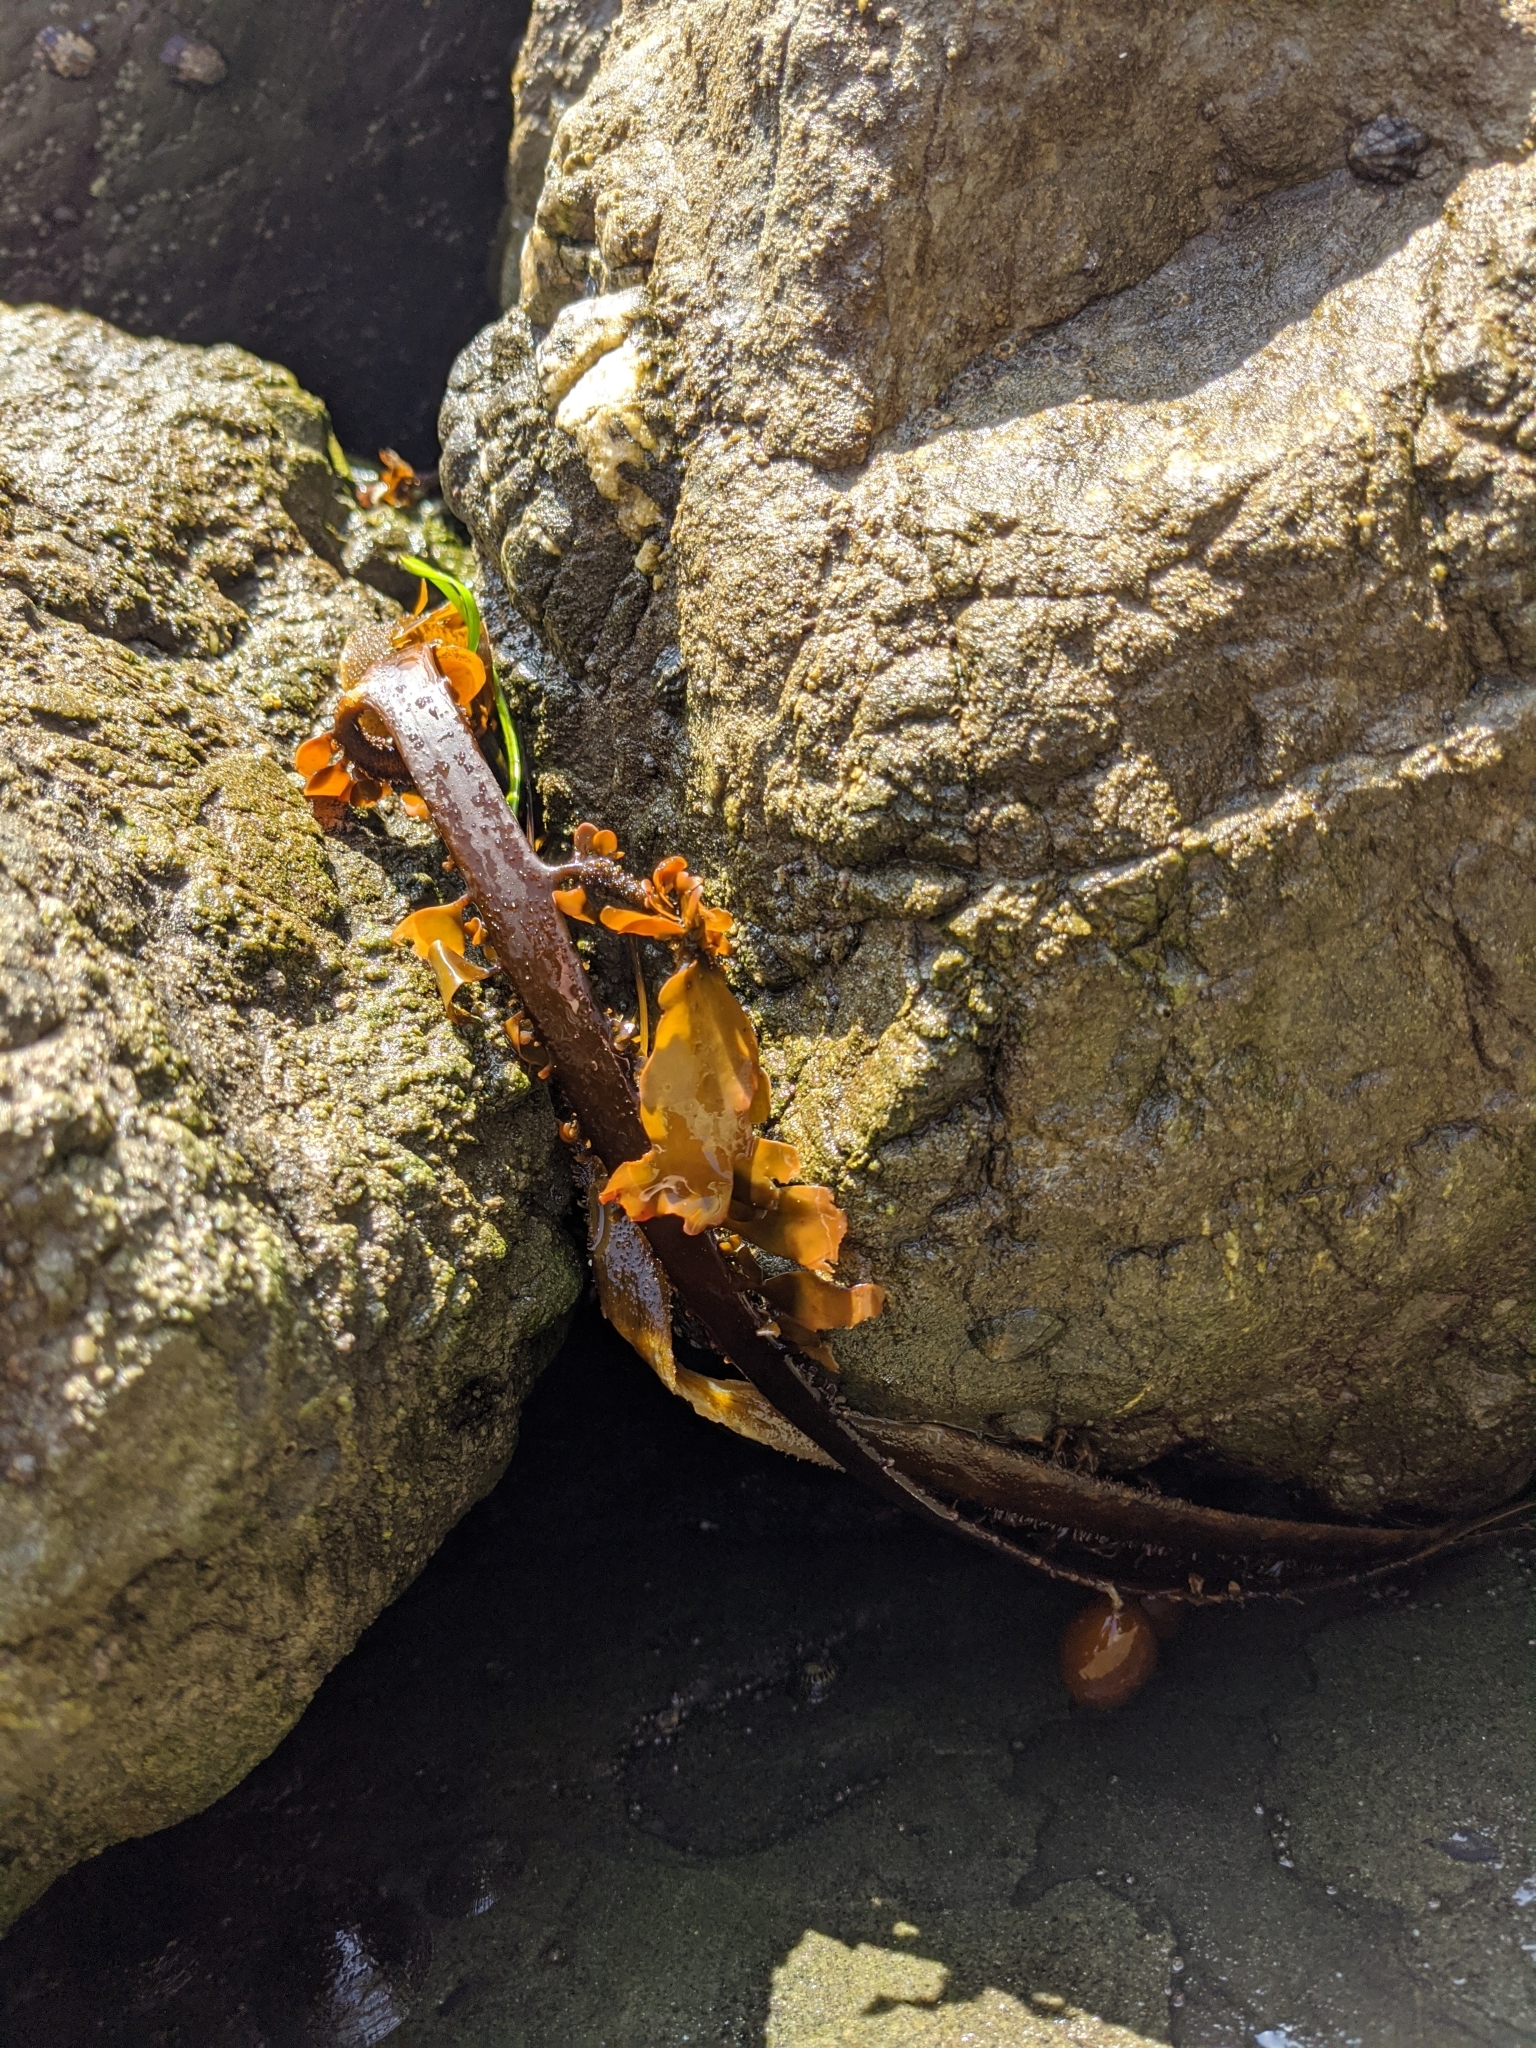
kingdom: Chromista
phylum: Ochrophyta
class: Phaeophyceae
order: Laminariales
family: Lessoniaceae
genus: Egregia
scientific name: Egregia menziesii
